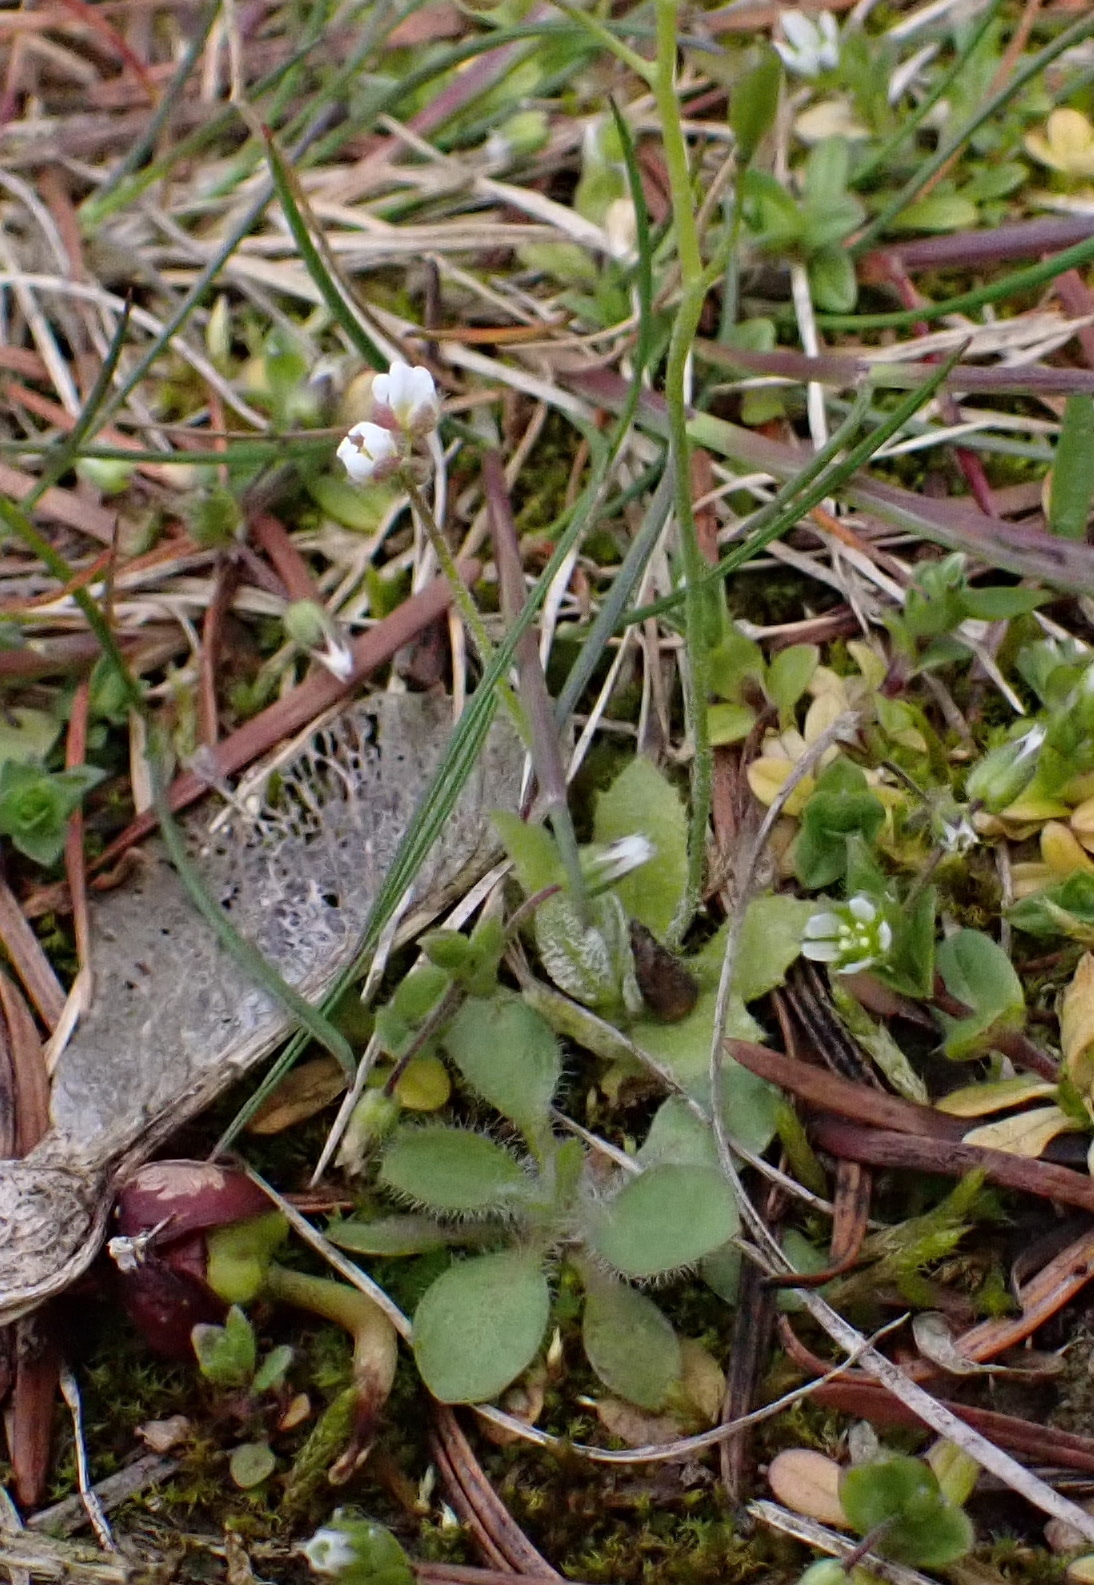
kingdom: Chromista
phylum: Oomycota
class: Peronosporea
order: Peronosporales
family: Peronosporaceae
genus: Hyaloperonospora
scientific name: Hyaloperonospora erophilae
